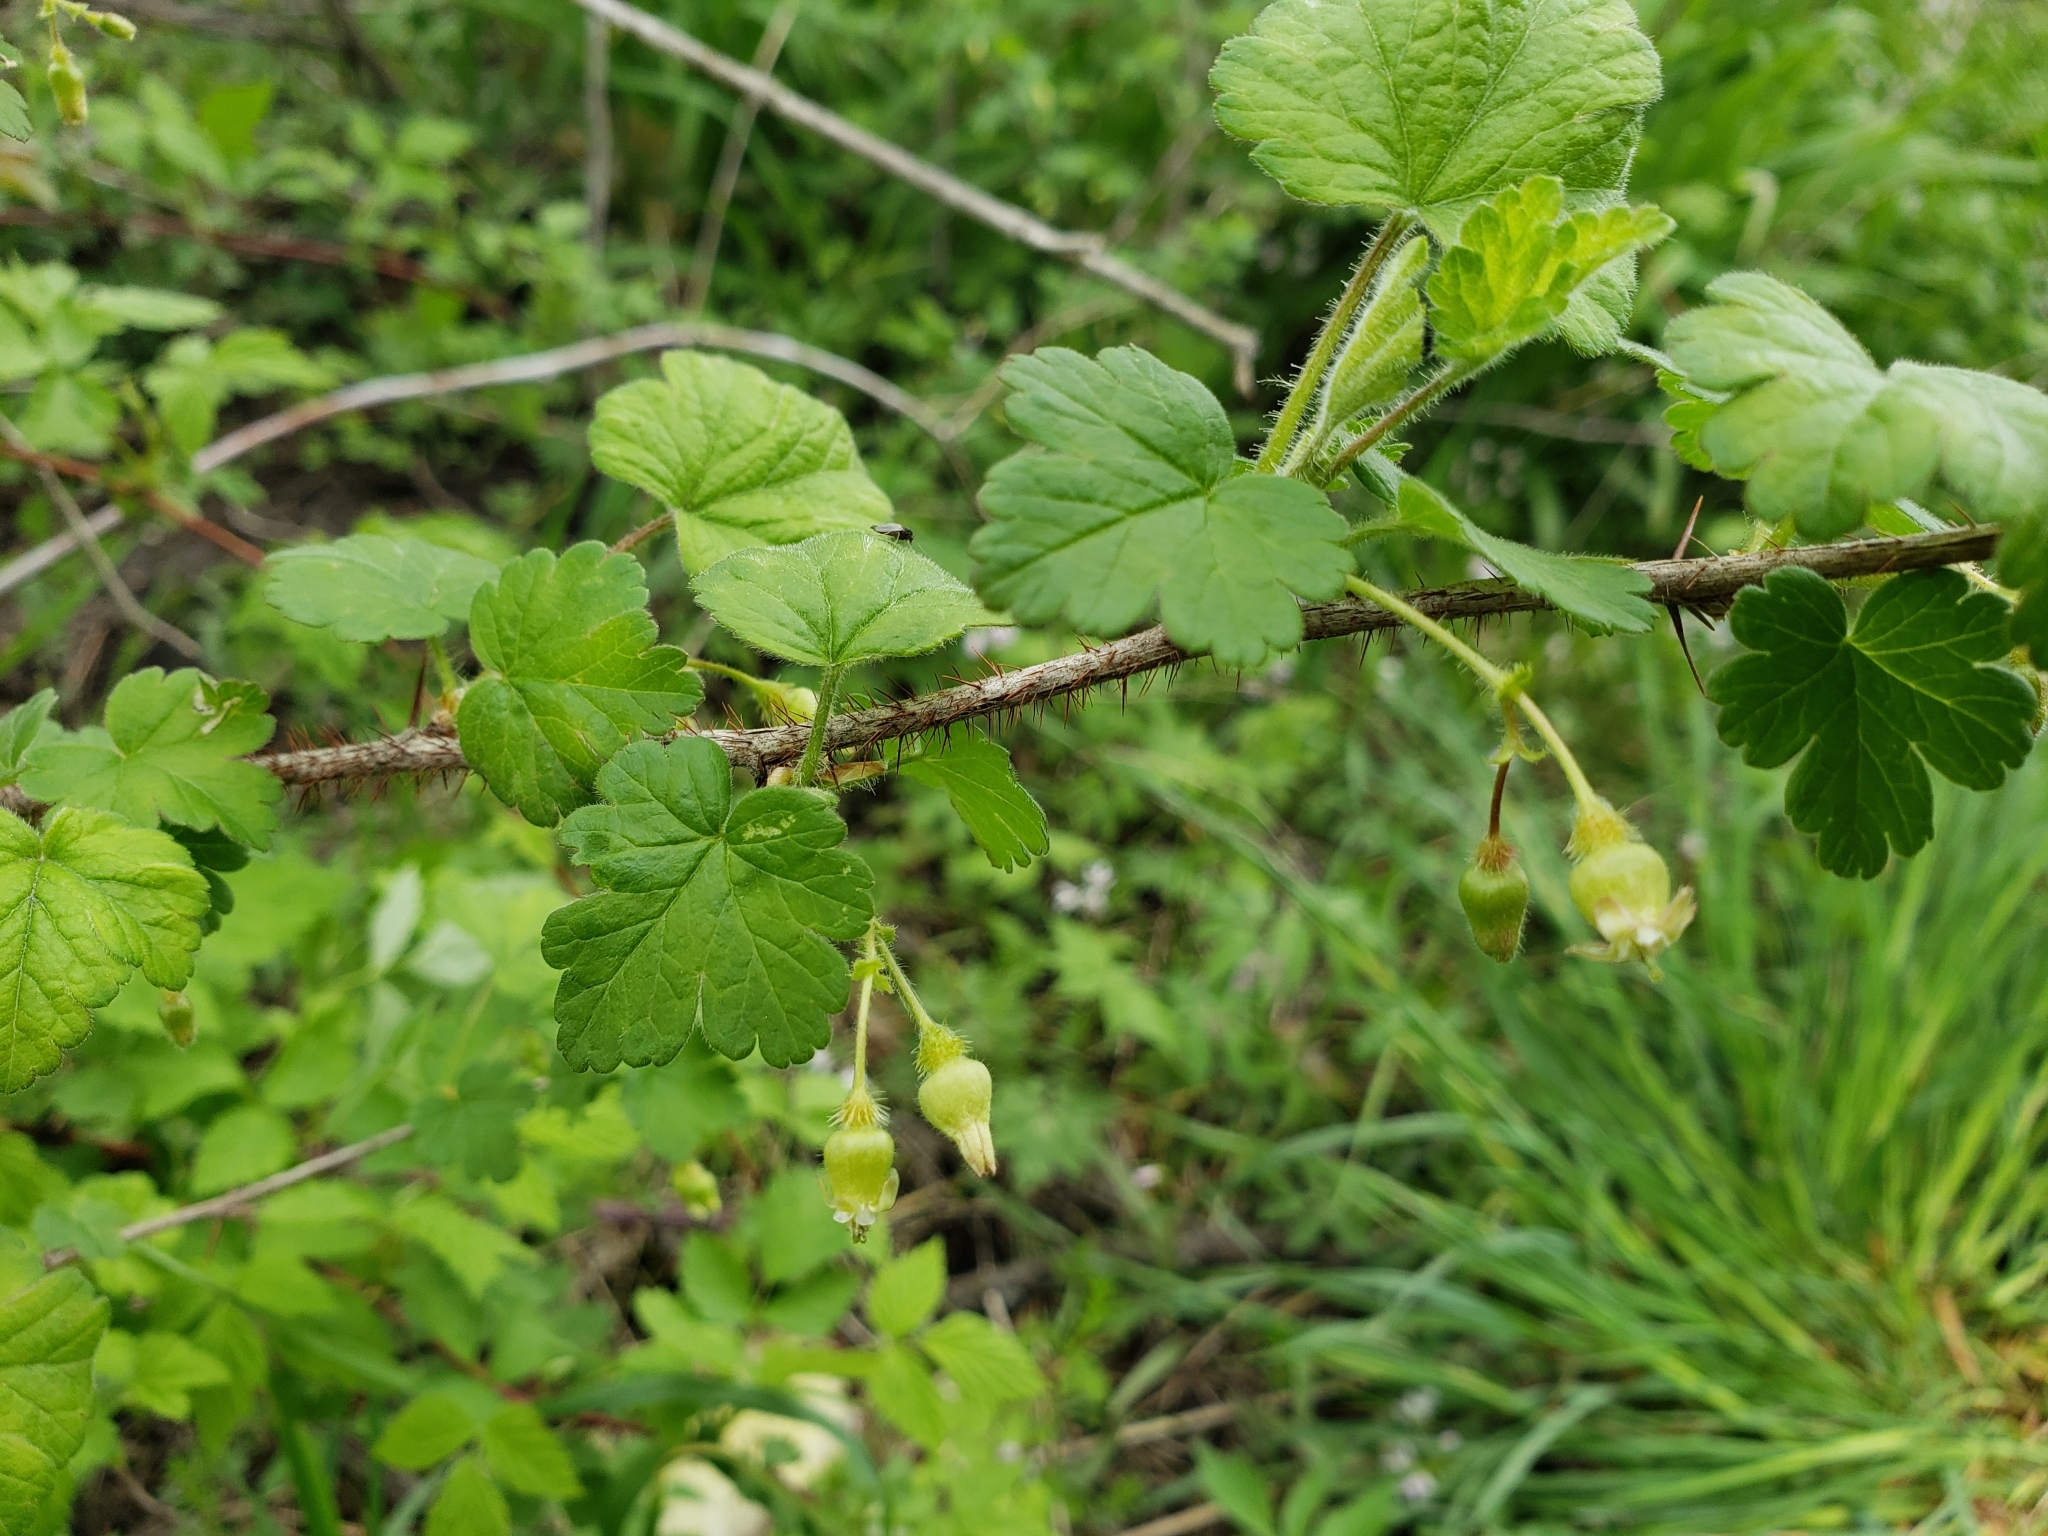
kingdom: Plantae
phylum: Tracheophyta
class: Magnoliopsida
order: Saxifragales
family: Grossulariaceae
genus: Ribes
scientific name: Ribes cynosbati
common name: American gooseberry
